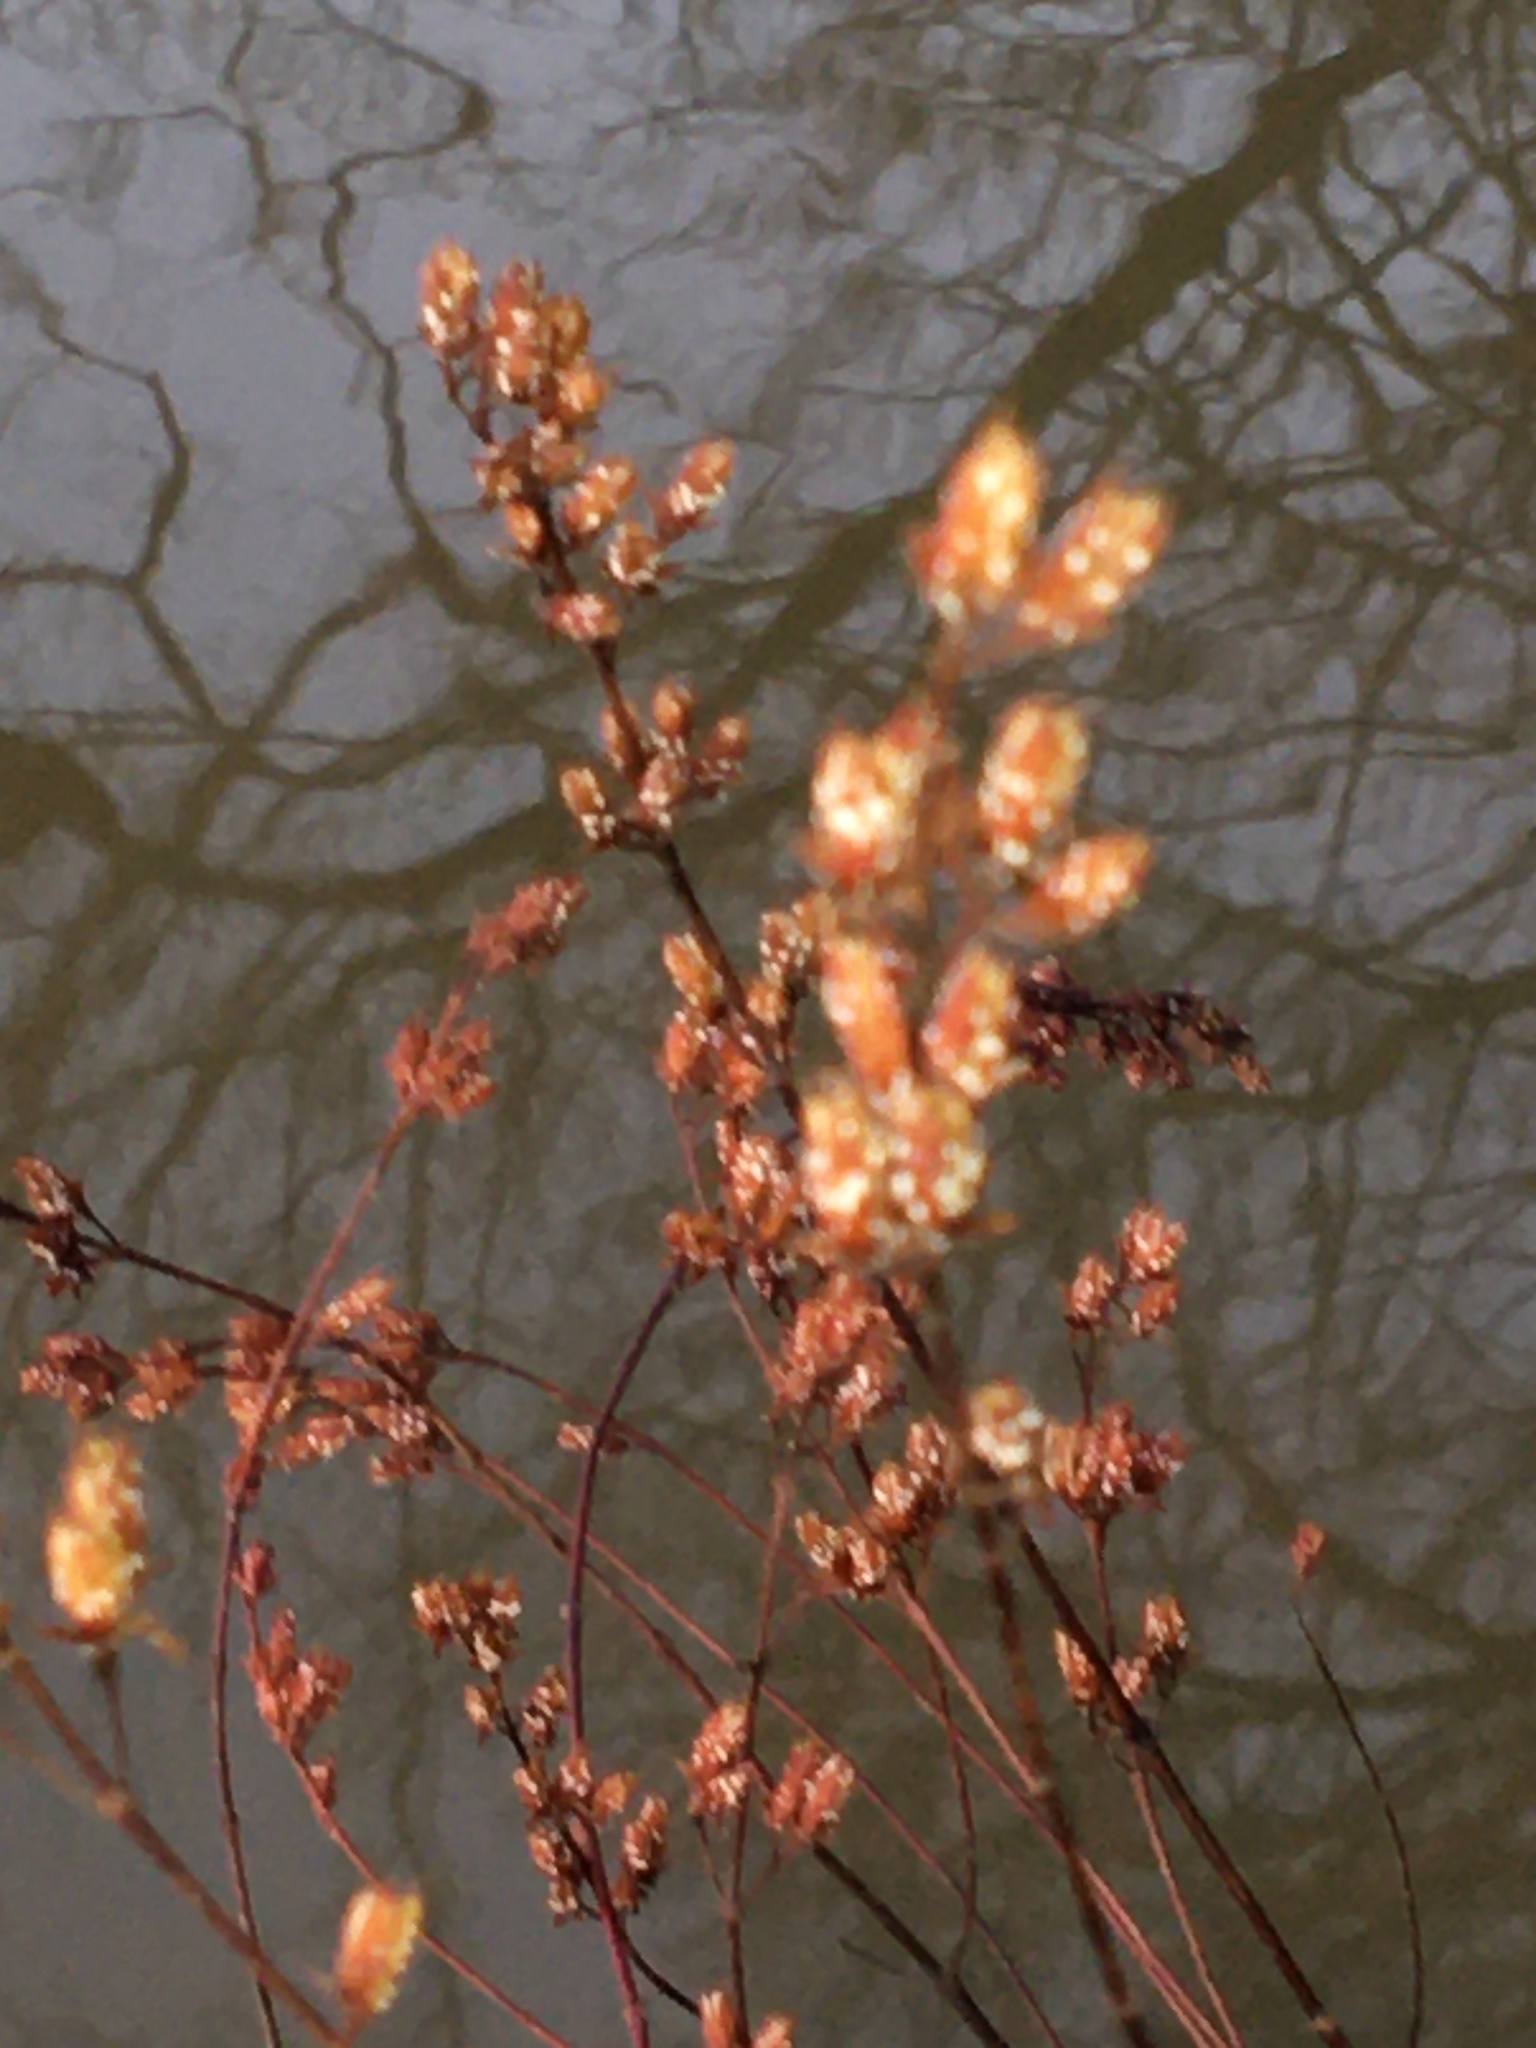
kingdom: Plantae
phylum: Tracheophyta
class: Magnoliopsida
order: Malpighiales
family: Hypericaceae
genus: Triadenum
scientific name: Triadenum walteri
